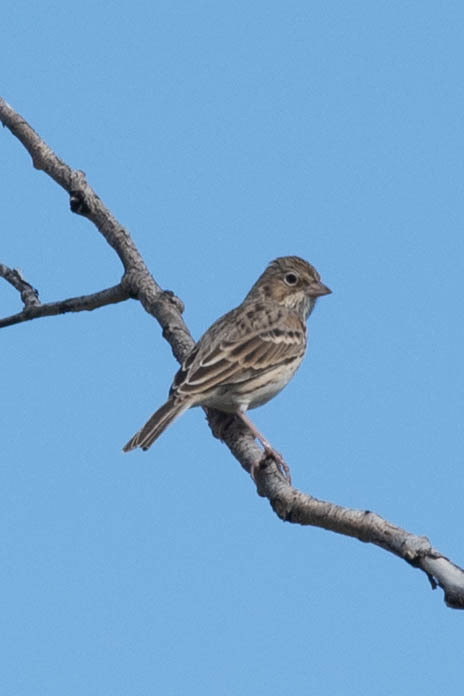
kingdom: Animalia
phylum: Chordata
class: Aves
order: Passeriformes
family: Passerellidae
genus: Pooecetes
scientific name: Pooecetes gramineus
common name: Vesper sparrow
